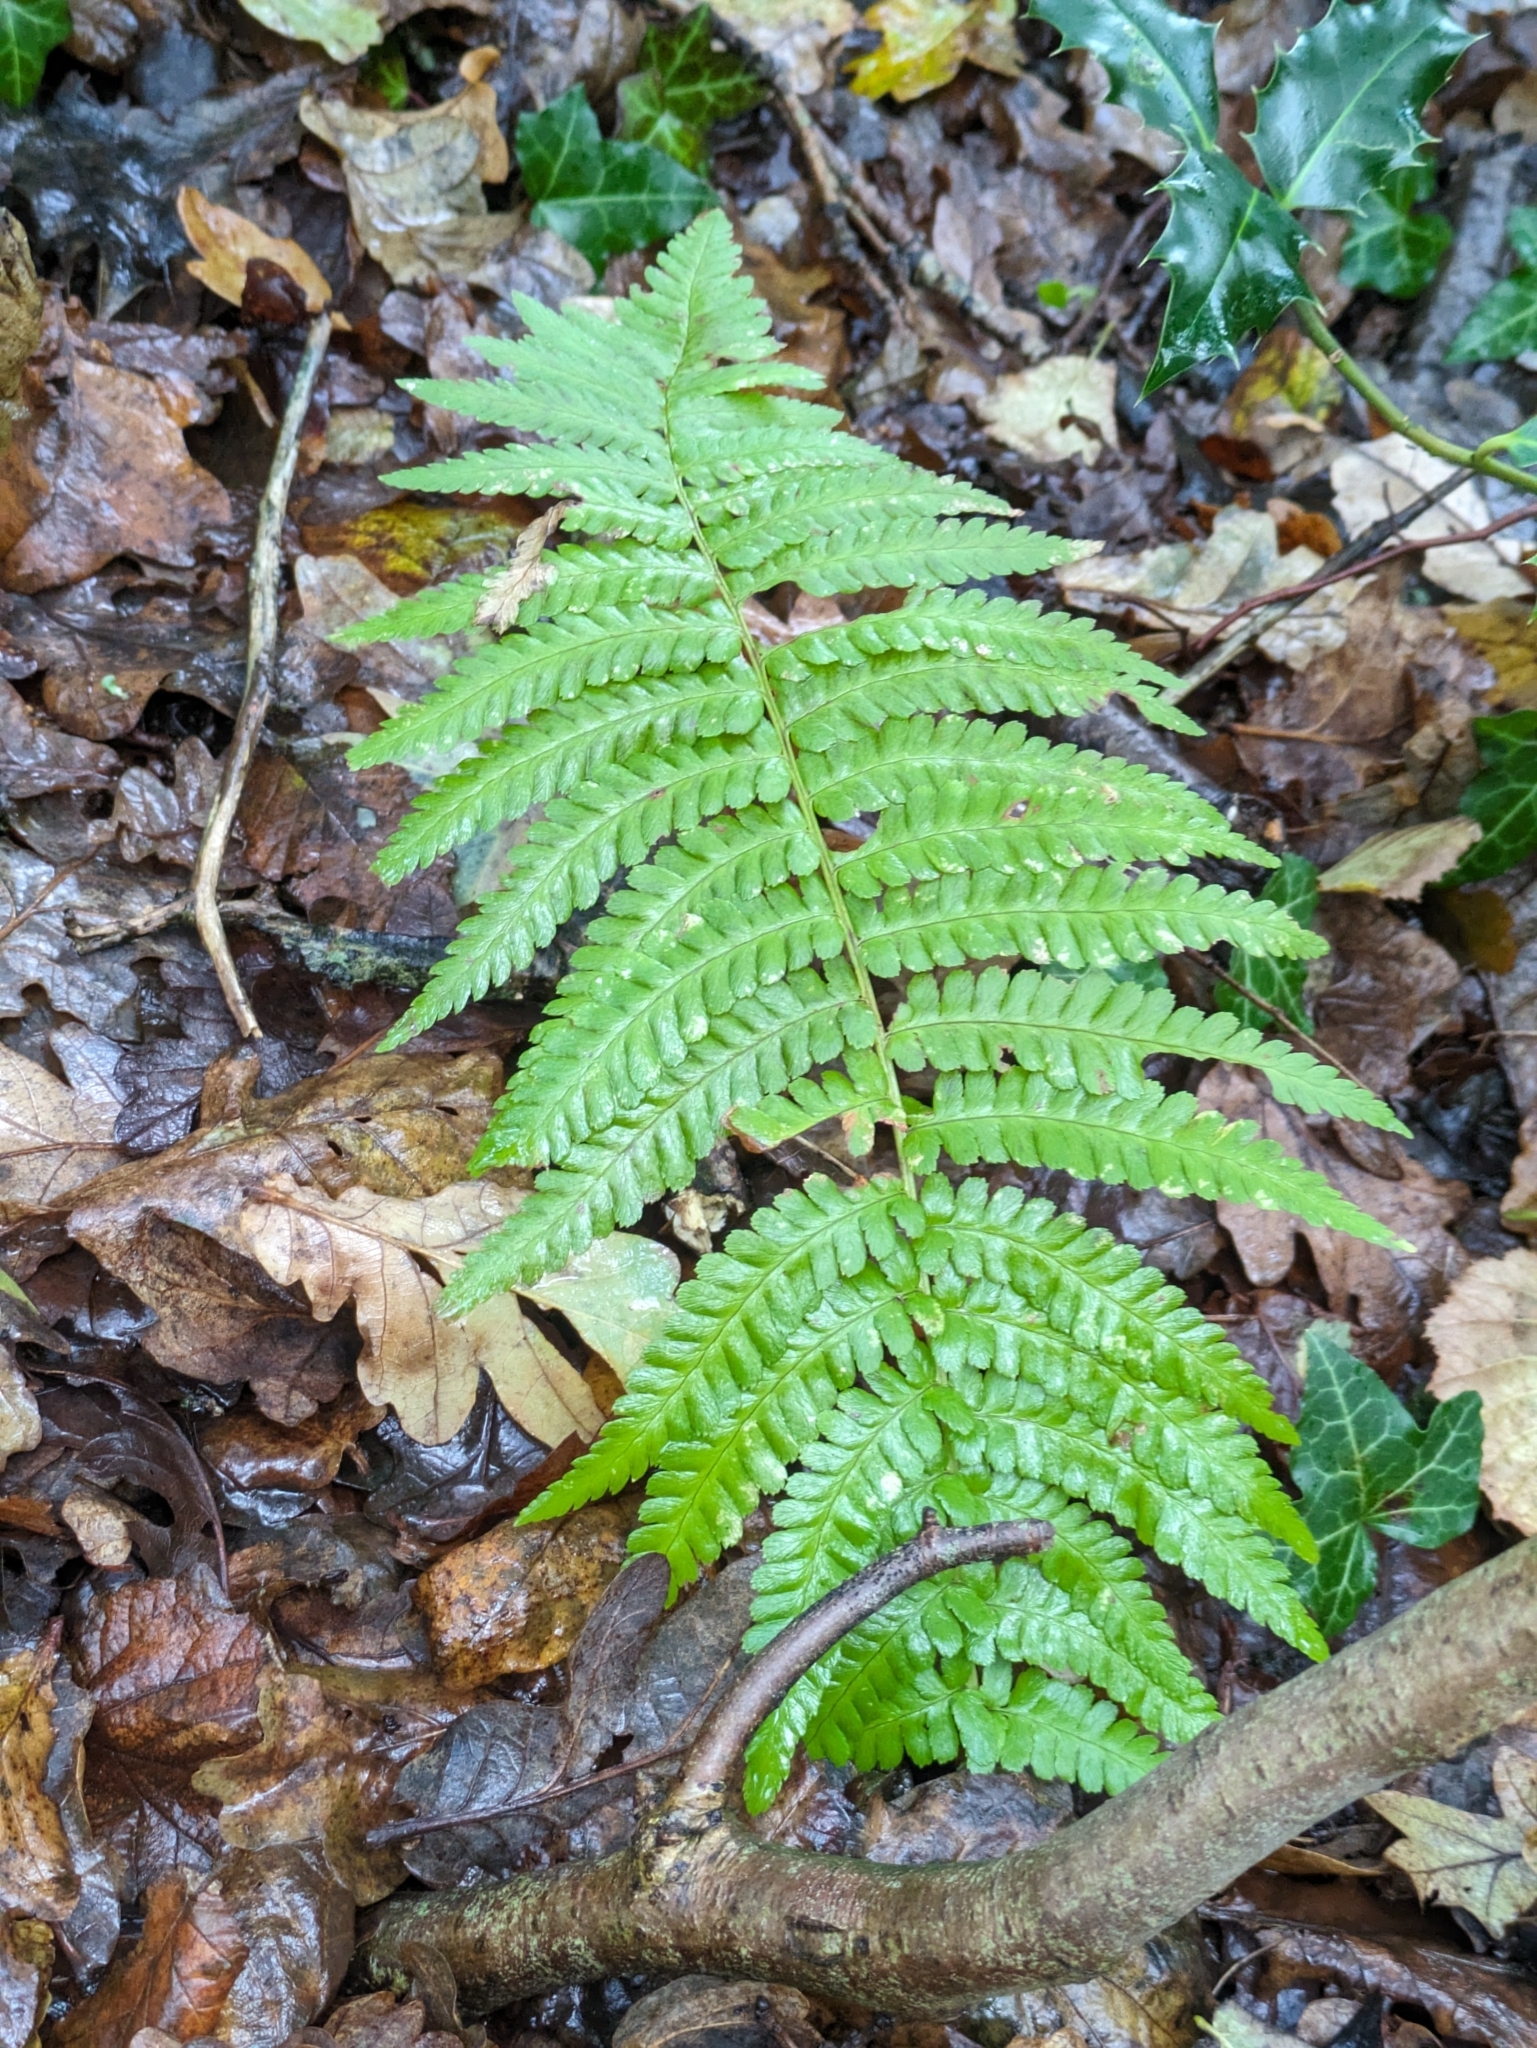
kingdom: Plantae
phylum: Tracheophyta
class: Polypodiopsida
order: Polypodiales
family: Dryopteridaceae
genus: Dryopteris
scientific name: Dryopteris filix-mas
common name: Male fern
